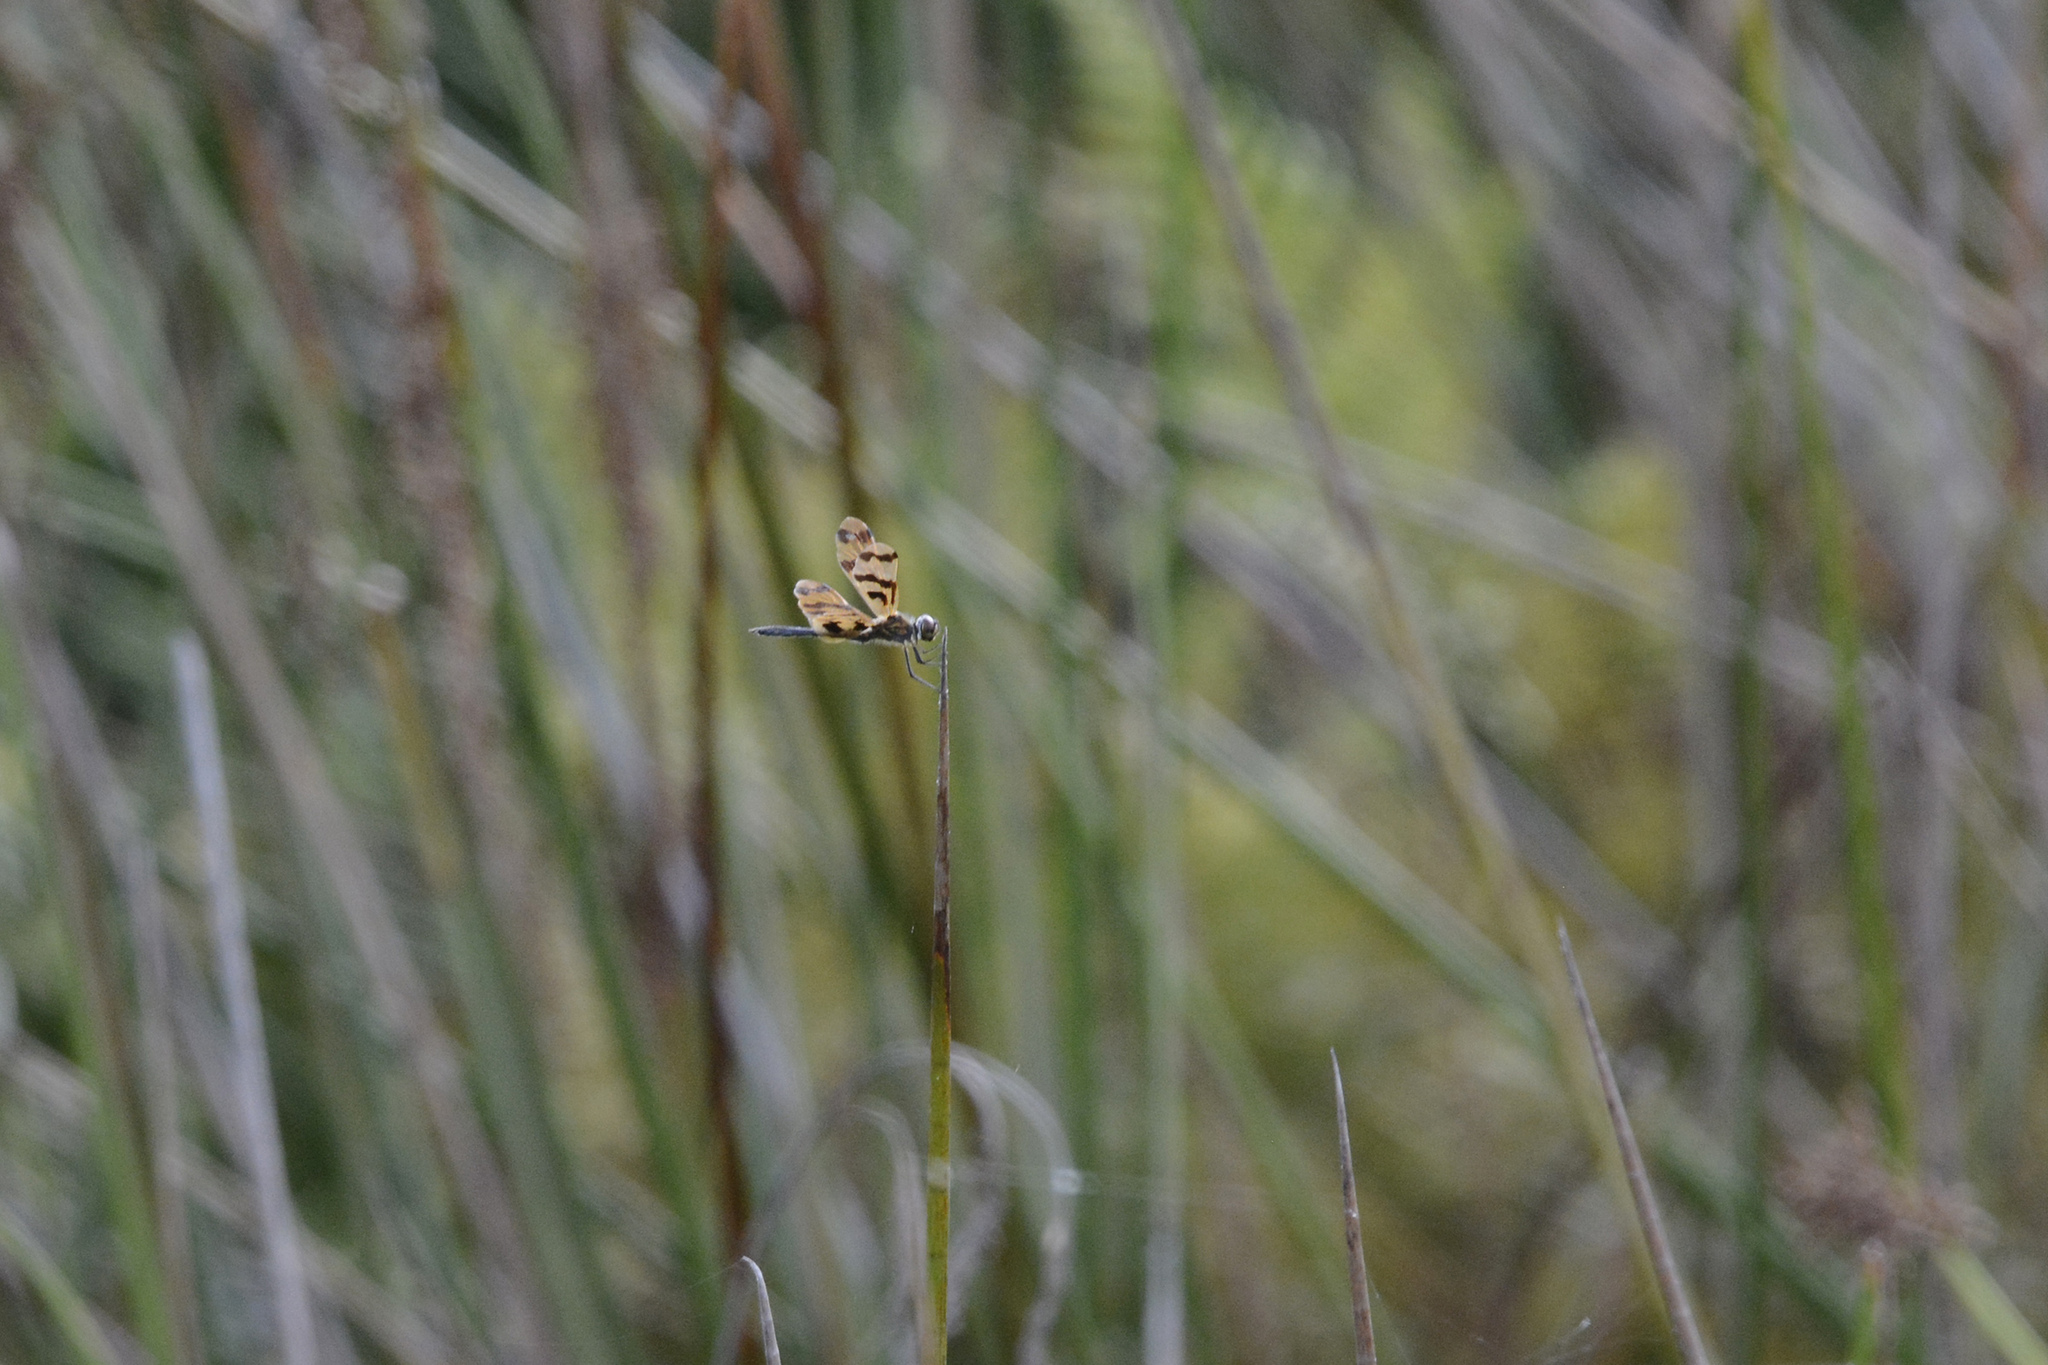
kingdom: Animalia
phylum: Arthropoda
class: Insecta
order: Odonata
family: Libellulidae
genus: Rhyothemis
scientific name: Rhyothemis graphiptera
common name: Graphic flutterer
